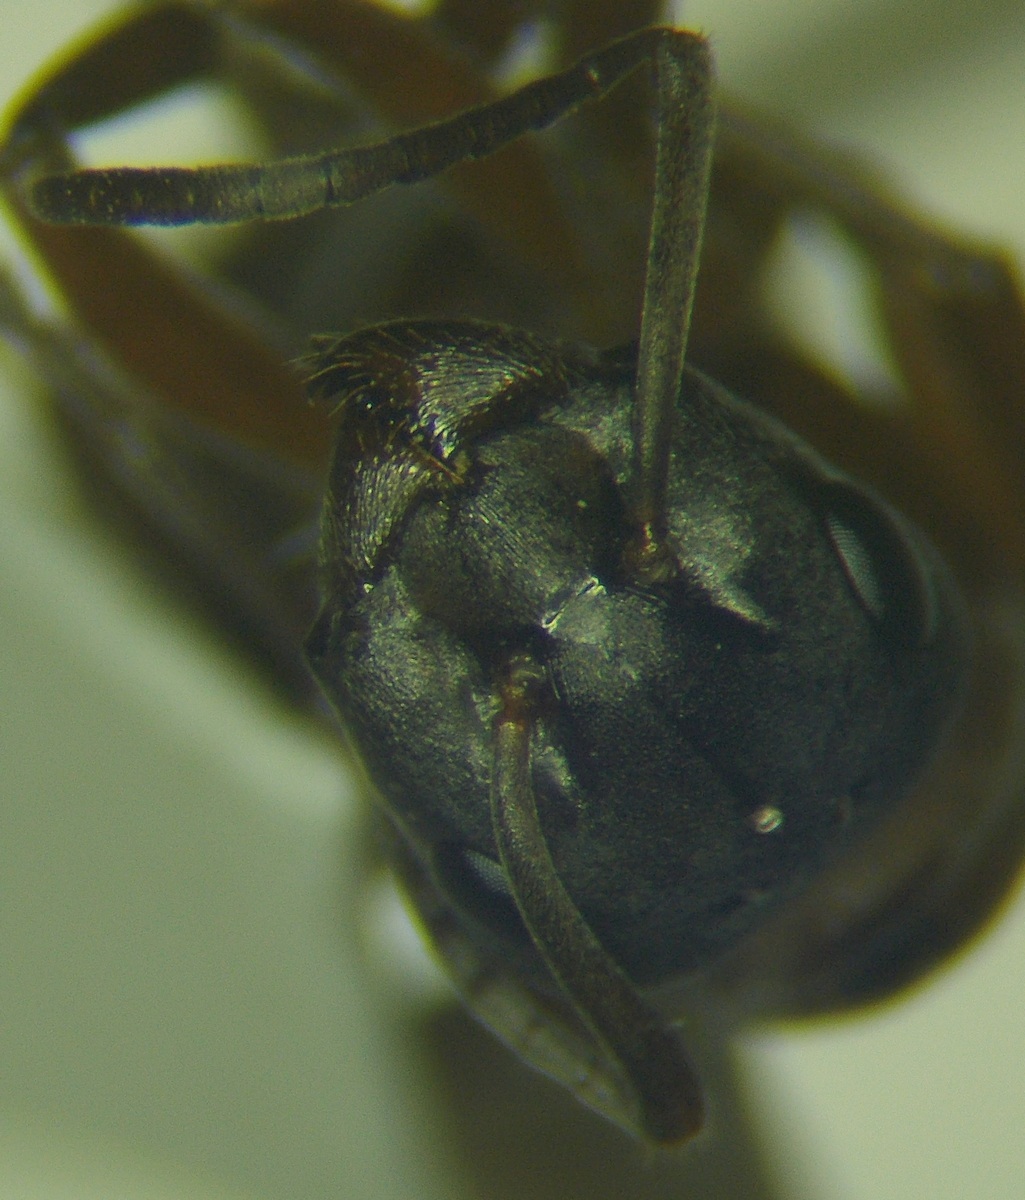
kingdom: Animalia
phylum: Arthropoda
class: Insecta
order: Hymenoptera
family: Formicidae
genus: Formica
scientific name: Formica sanguinea
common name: Blood-red ant
